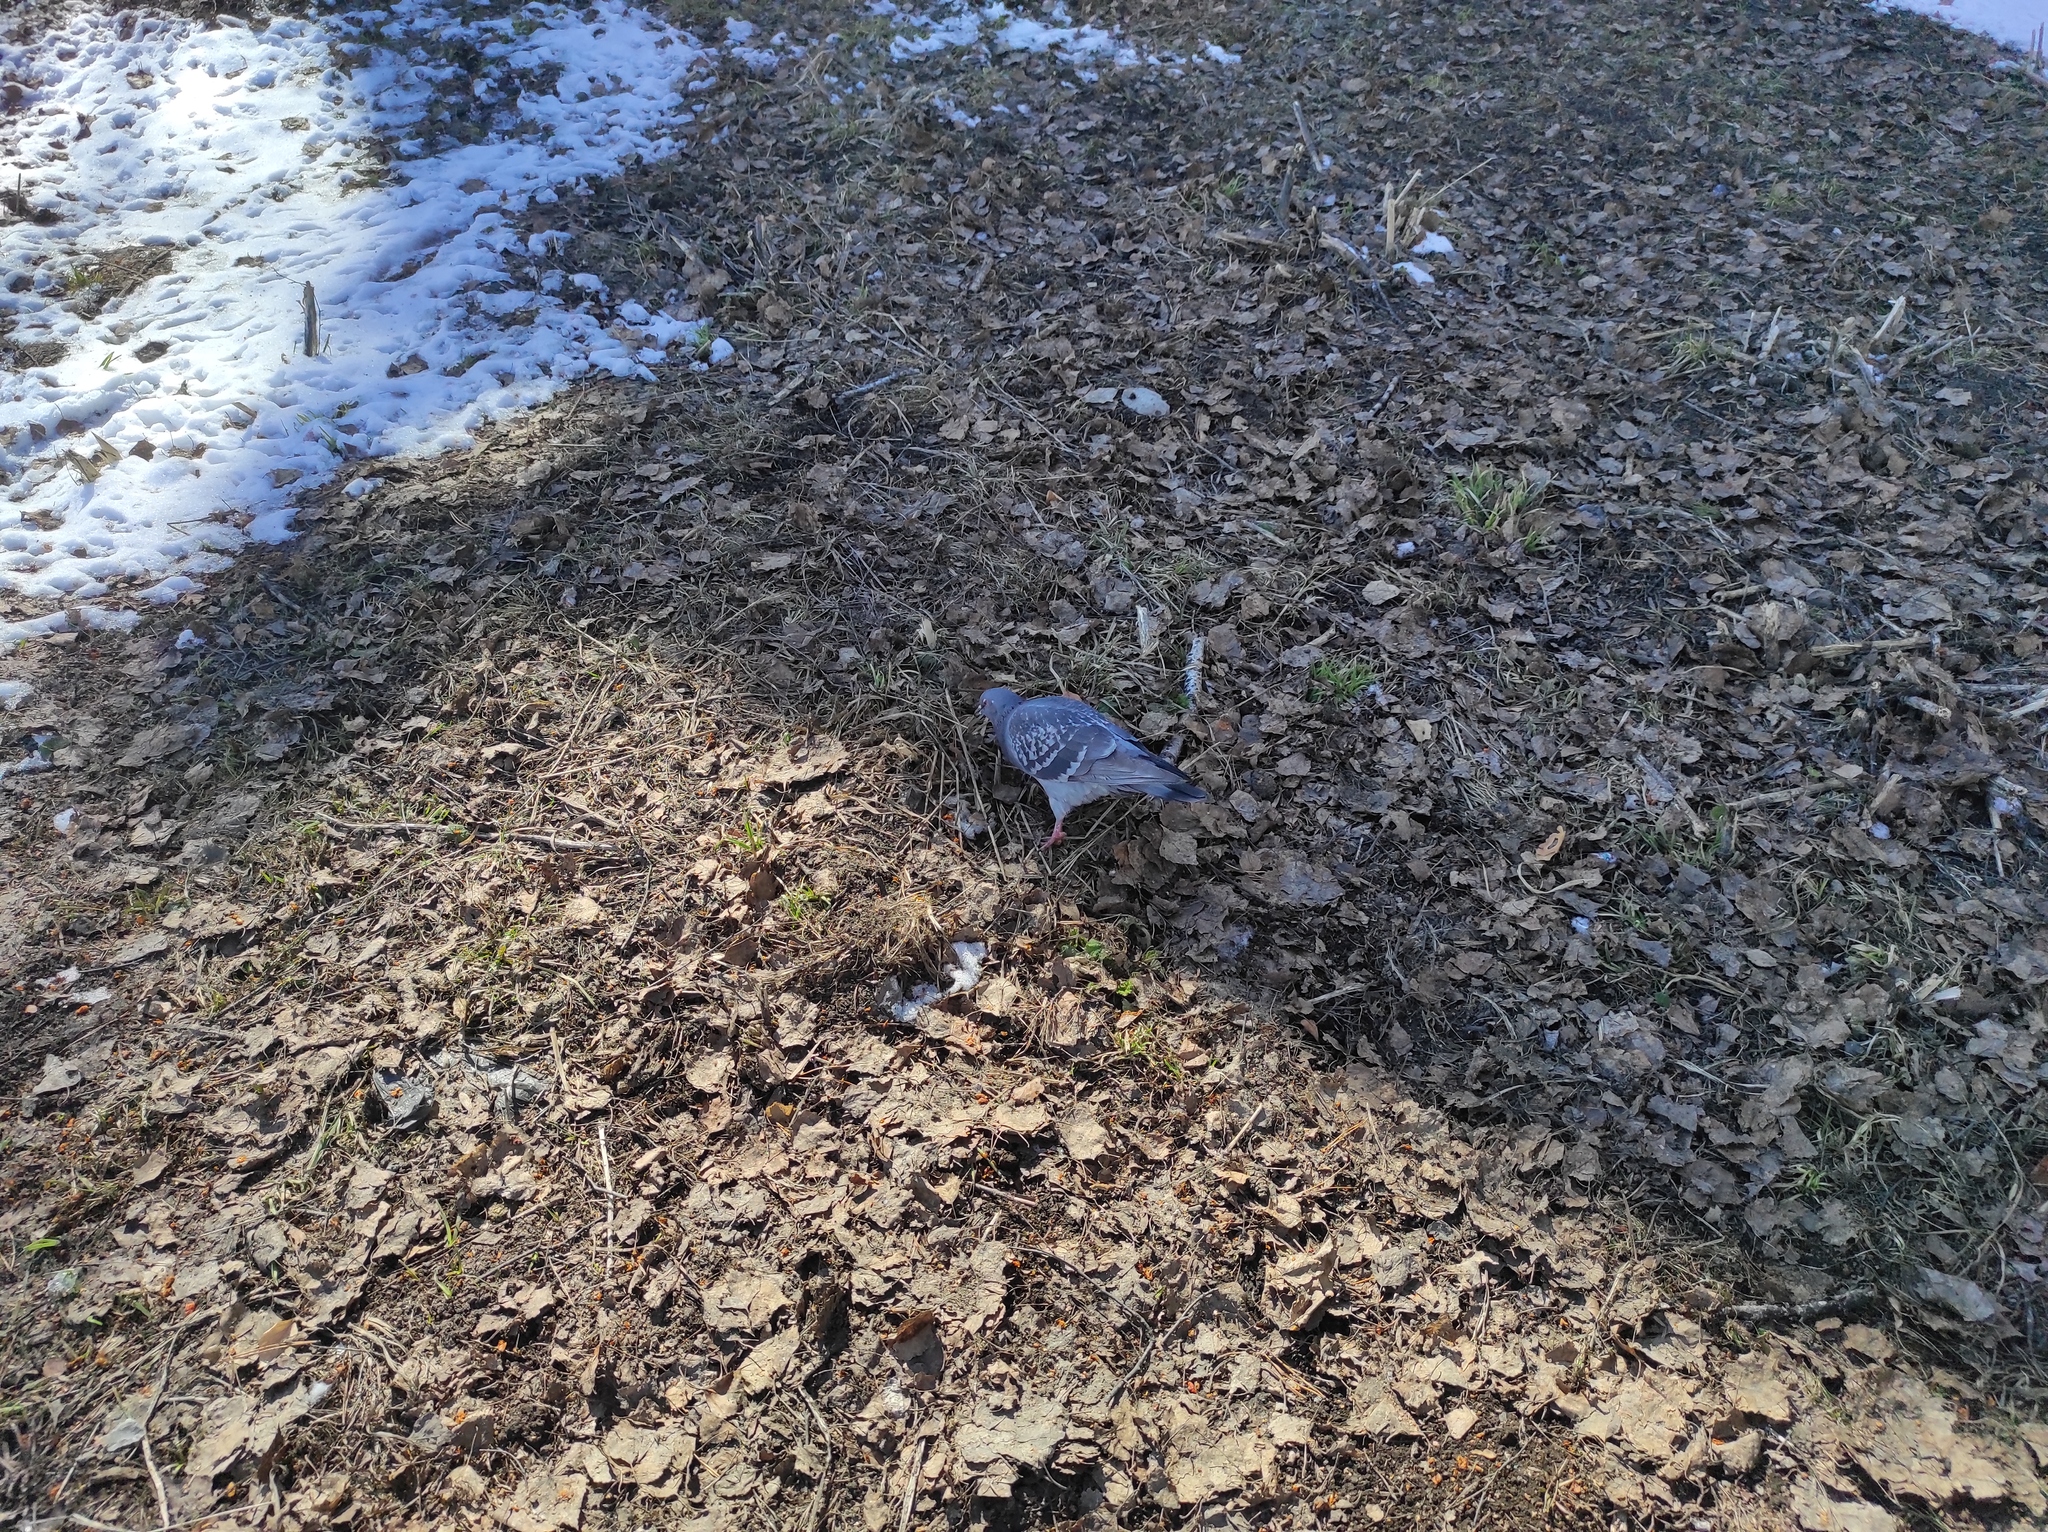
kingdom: Animalia
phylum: Chordata
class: Aves
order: Columbiformes
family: Columbidae
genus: Columba
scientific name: Columba livia
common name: Rock pigeon
